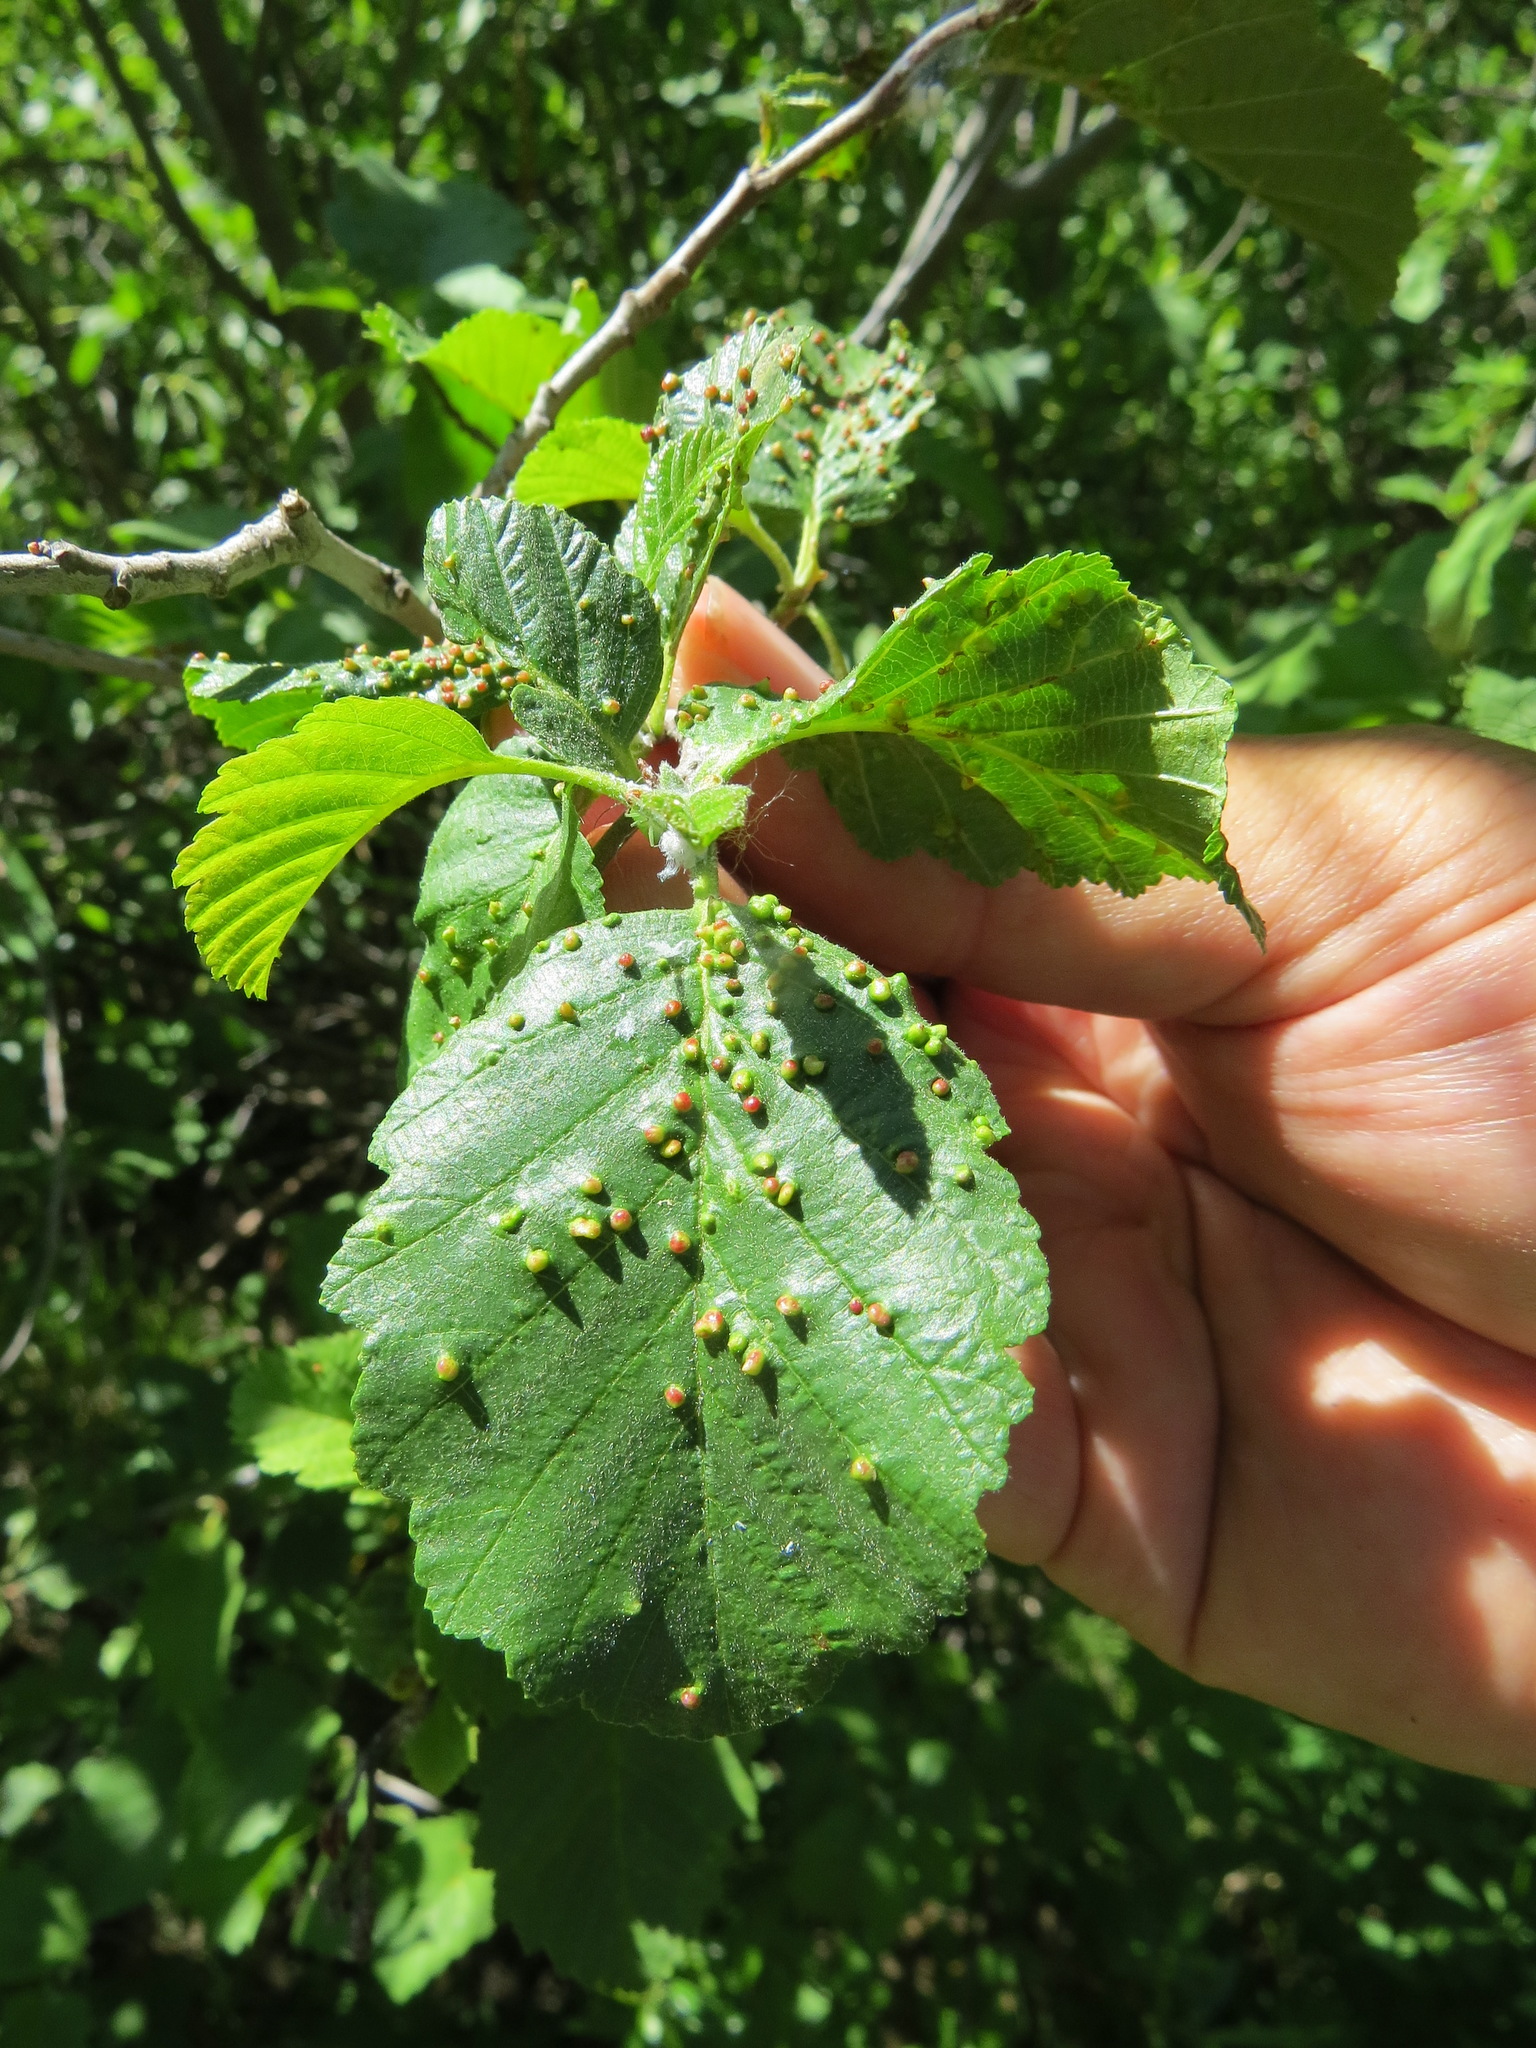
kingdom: Animalia
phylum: Arthropoda
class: Arachnida
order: Trombidiformes
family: Eriophyidae
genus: Eriophyes
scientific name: Eriophyes laevis
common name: Alder leaf gall mite
